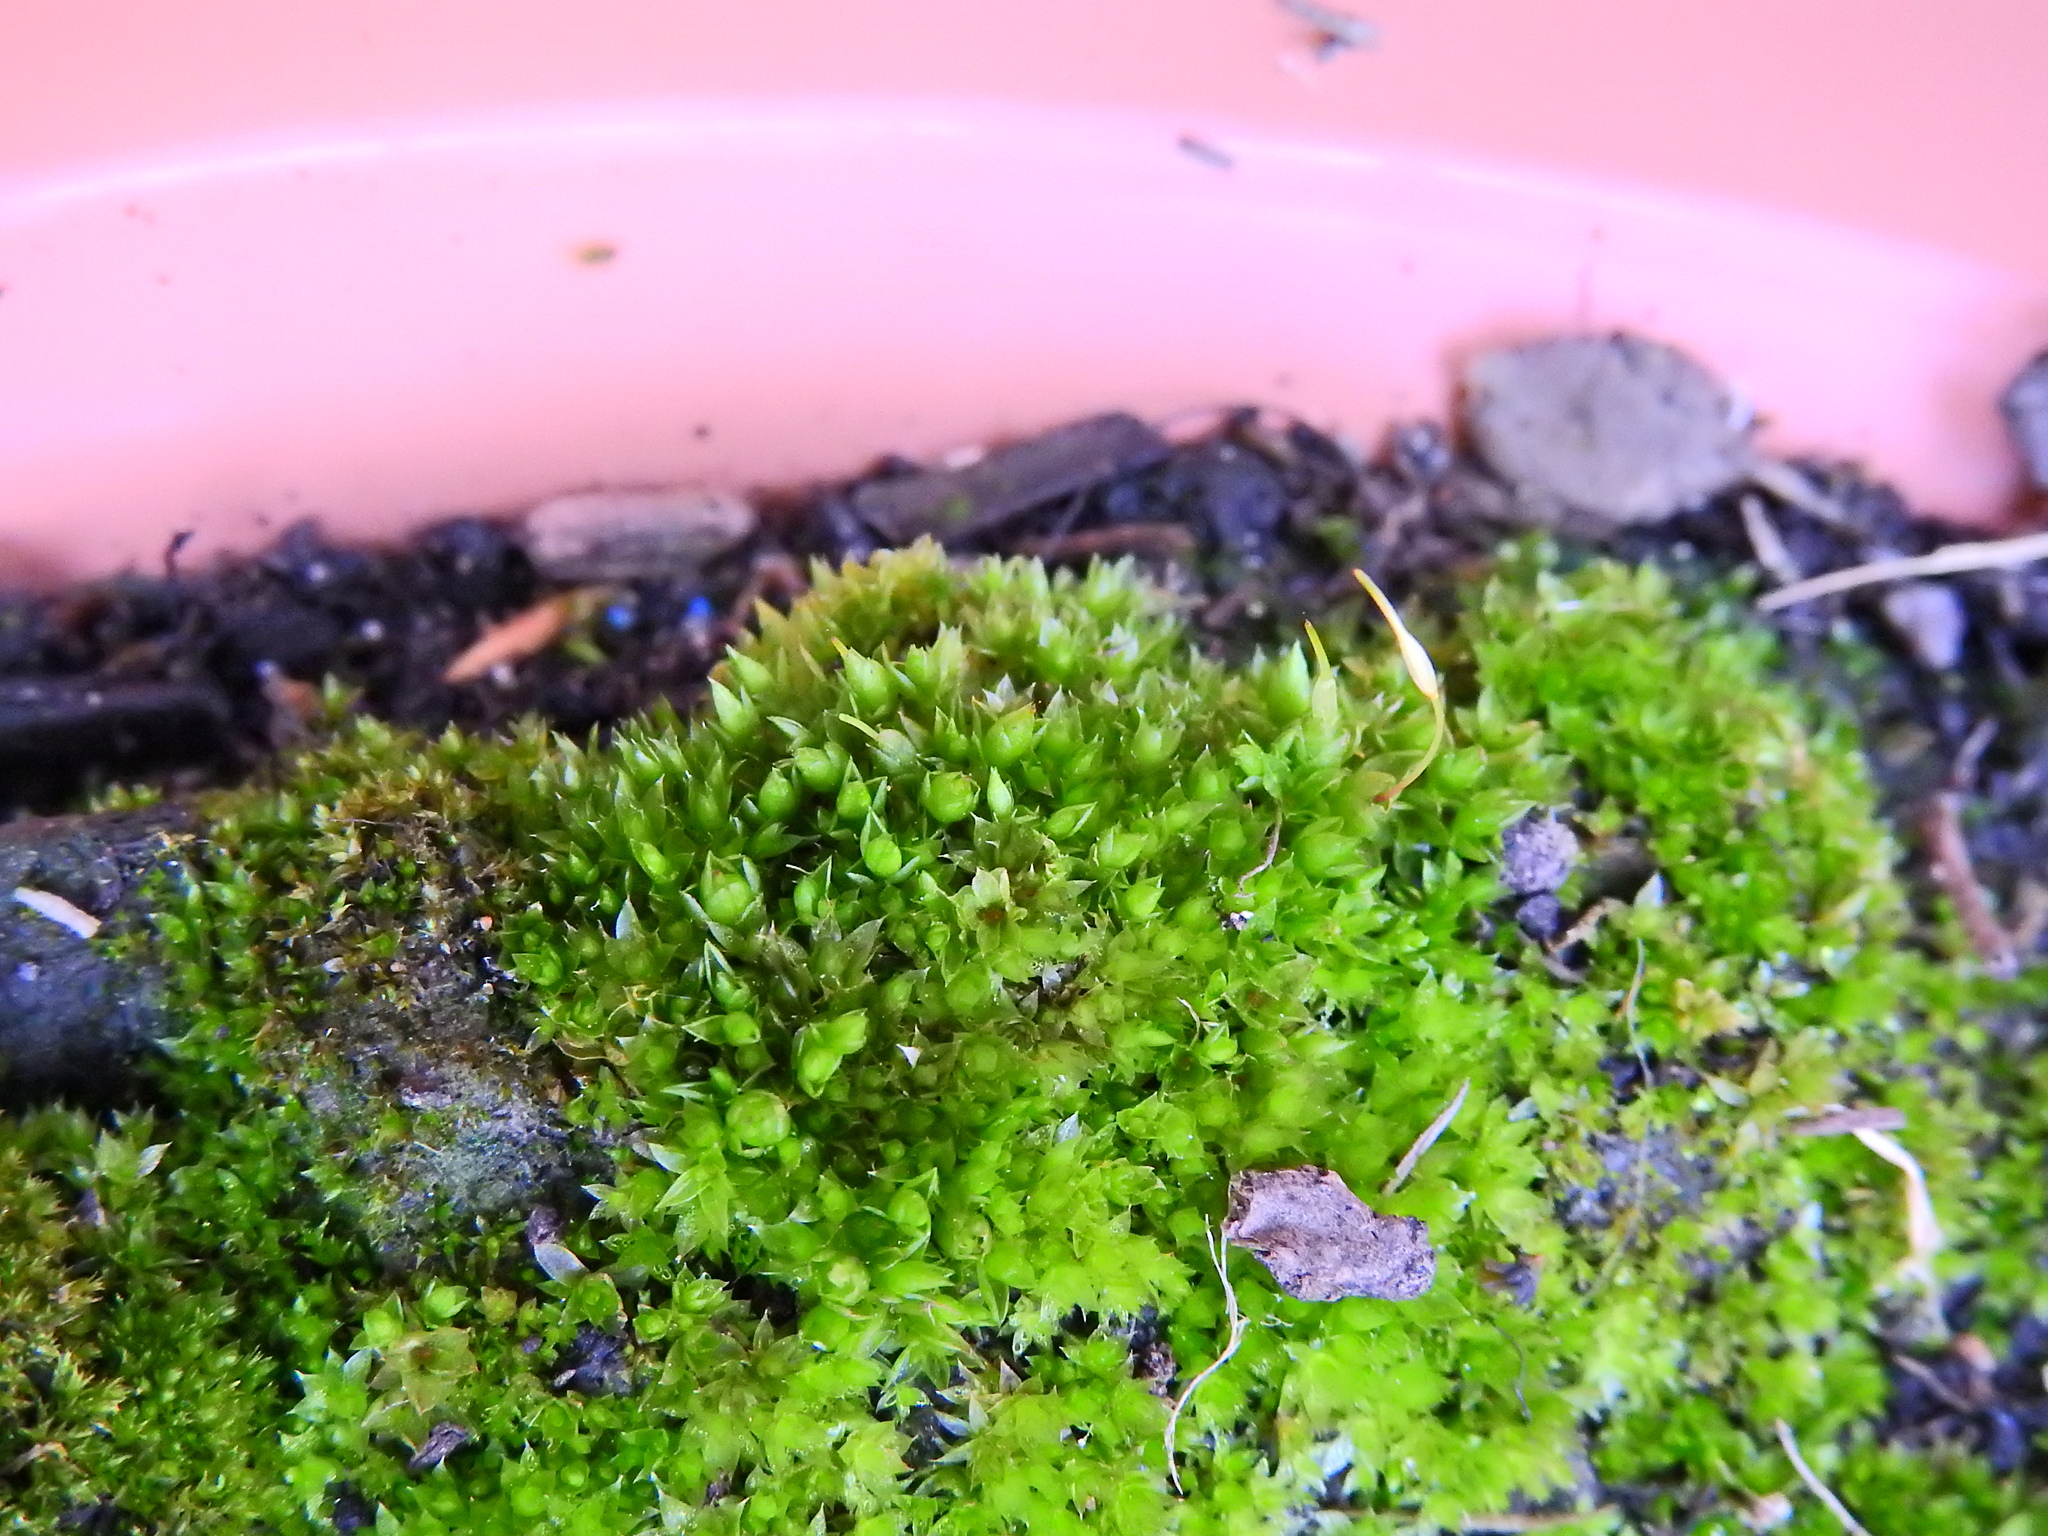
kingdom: Plantae
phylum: Bryophyta
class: Bryopsida
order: Funariales
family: Funariaceae
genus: Funaria
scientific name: Funaria hygrometrica
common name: Common cord moss
